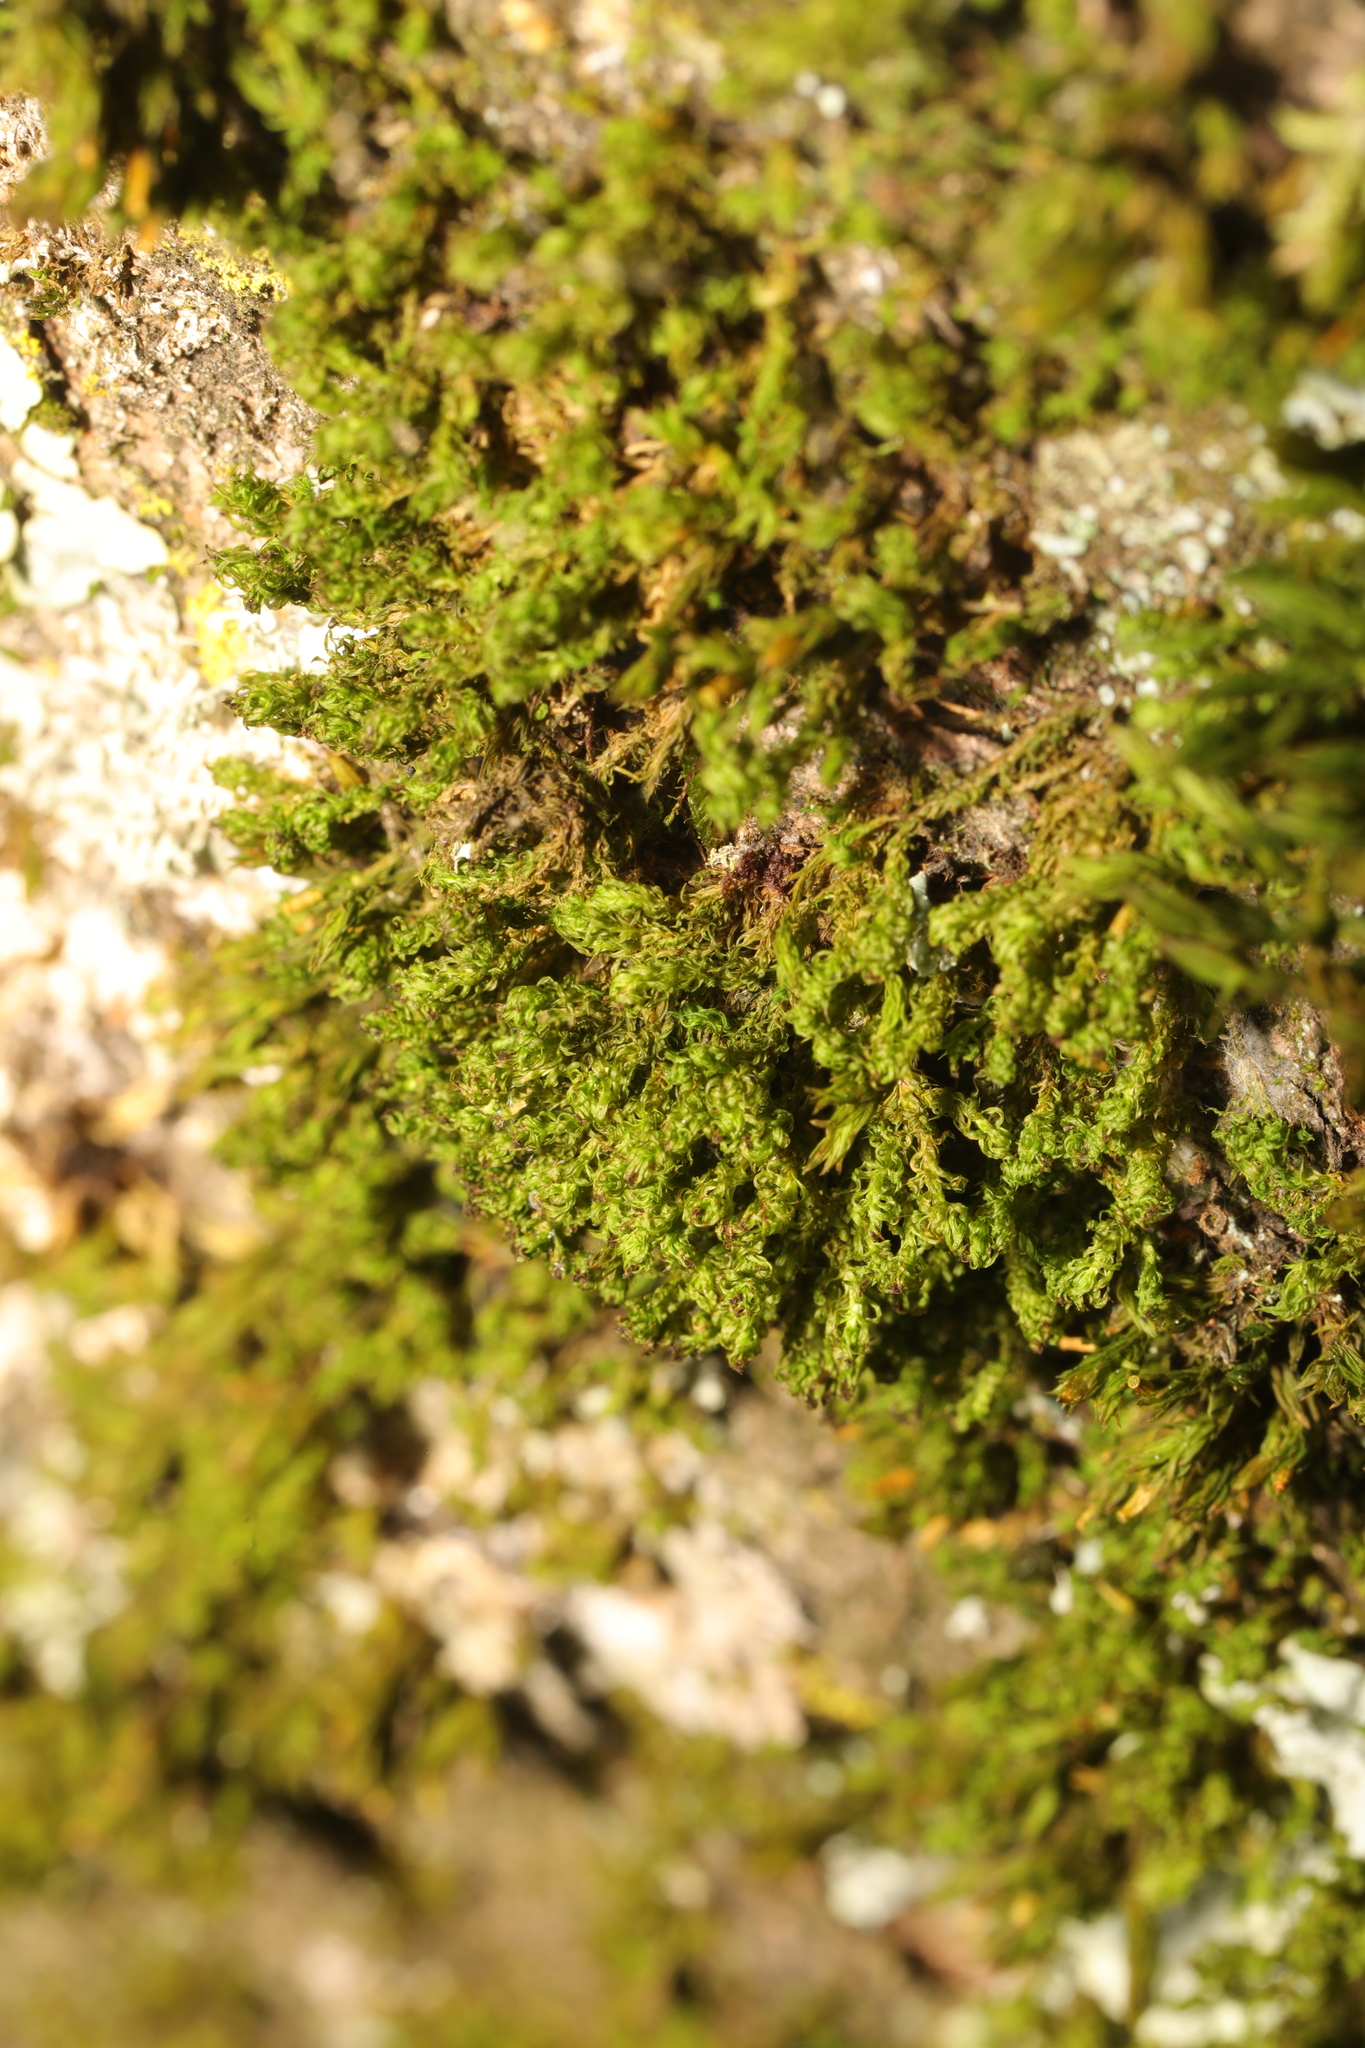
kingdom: Plantae
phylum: Bryophyta
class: Bryopsida
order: Orthotrichales
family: Orthotrichaceae
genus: Plenogemma
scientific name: Plenogemma phyllantha
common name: Frizzled pincushion
